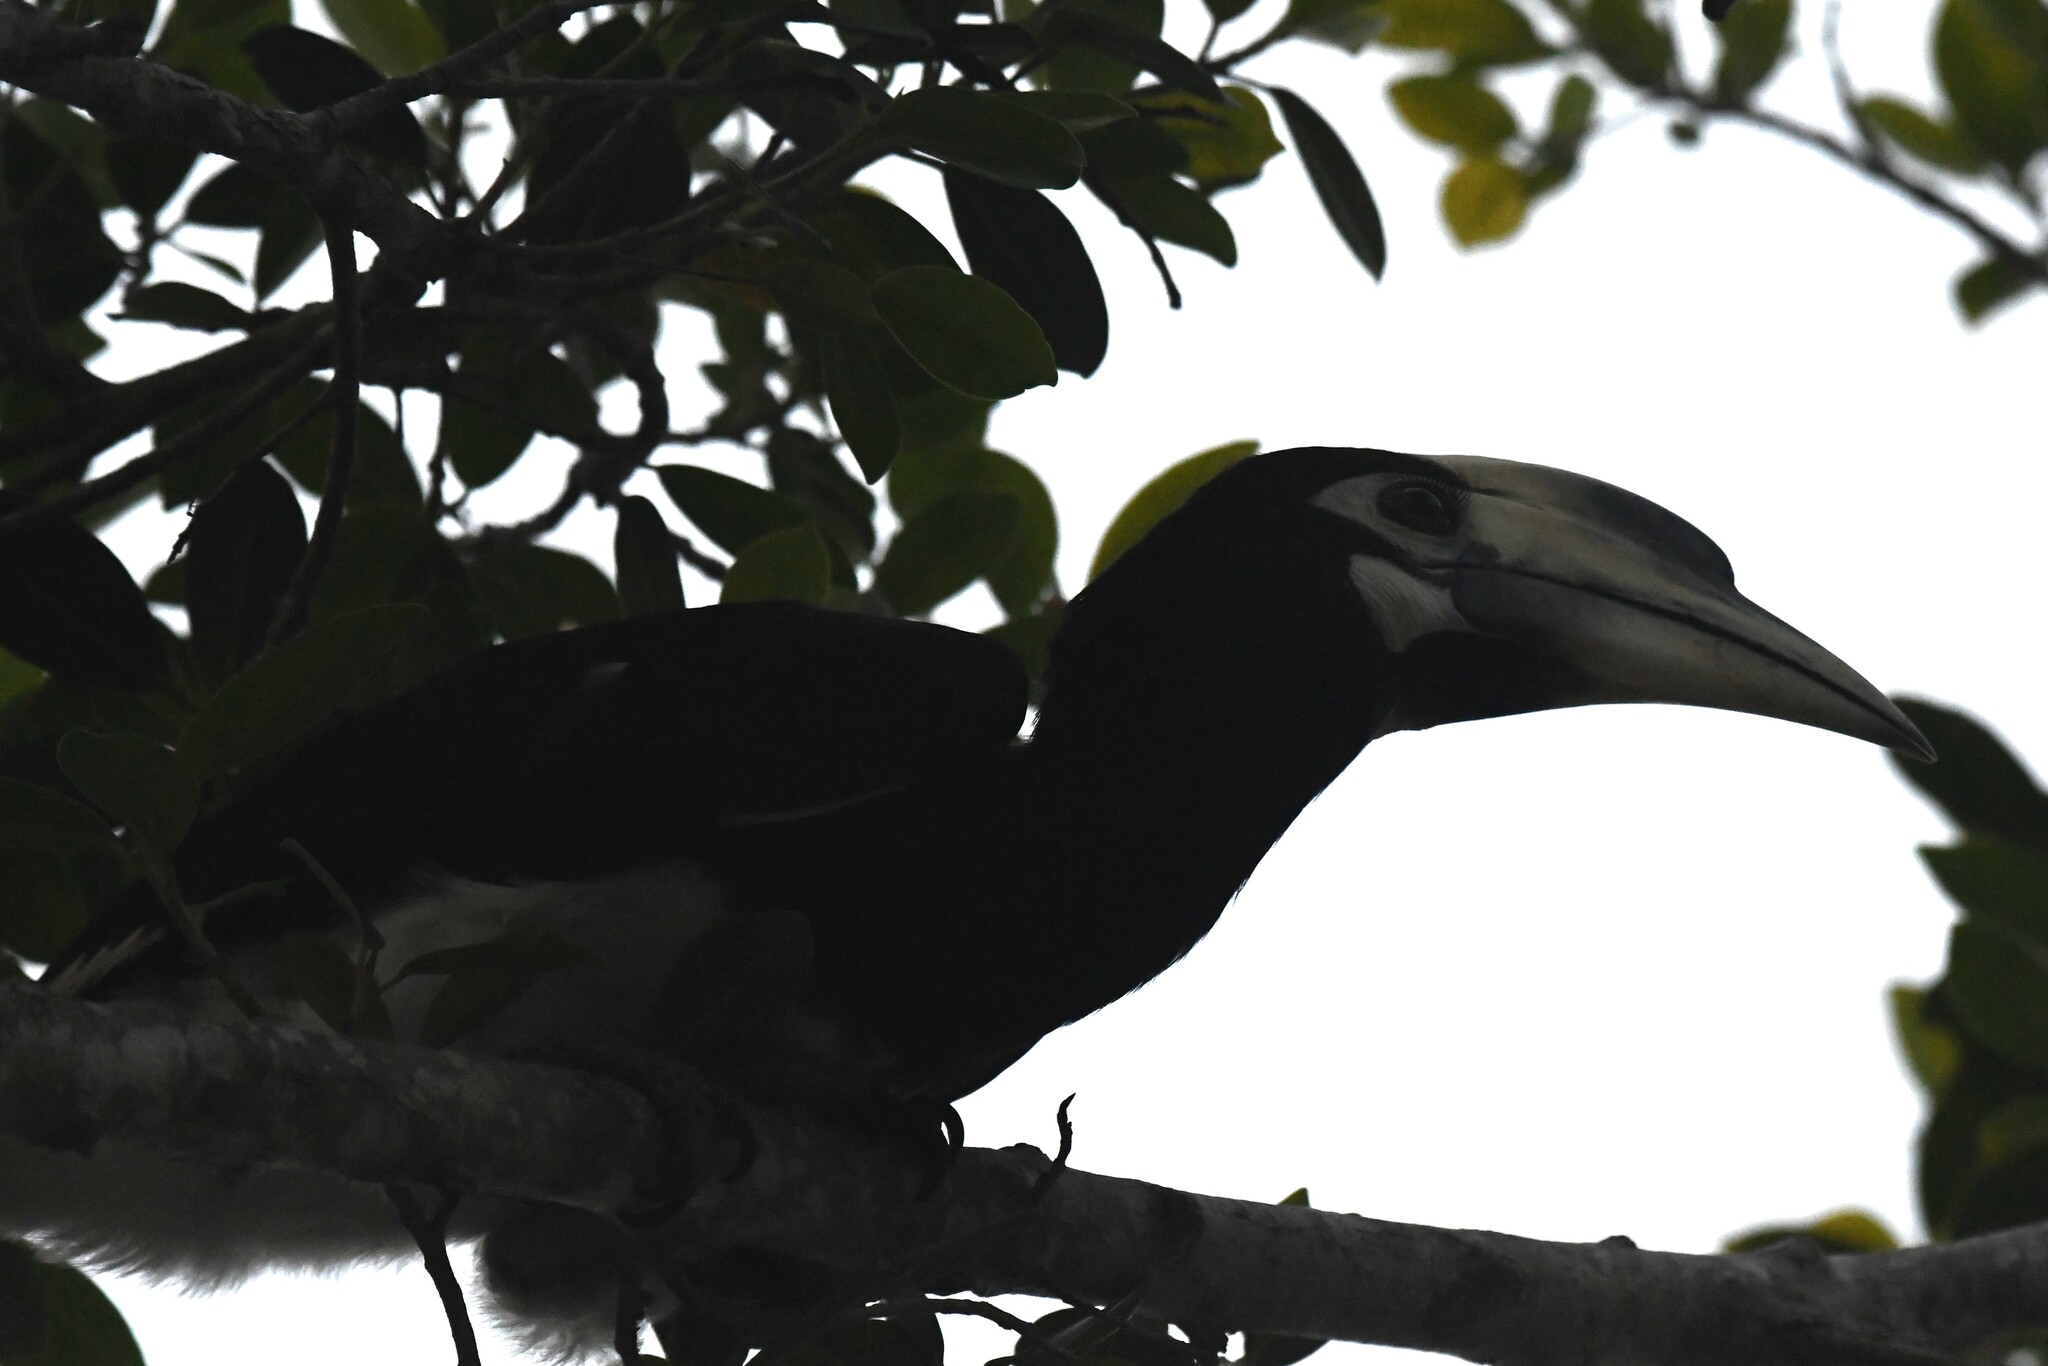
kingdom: Animalia
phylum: Chordata
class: Aves
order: Bucerotiformes
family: Bucerotidae
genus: Anthracoceros
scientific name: Anthracoceros albirostris
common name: Oriental pied-hornbill
